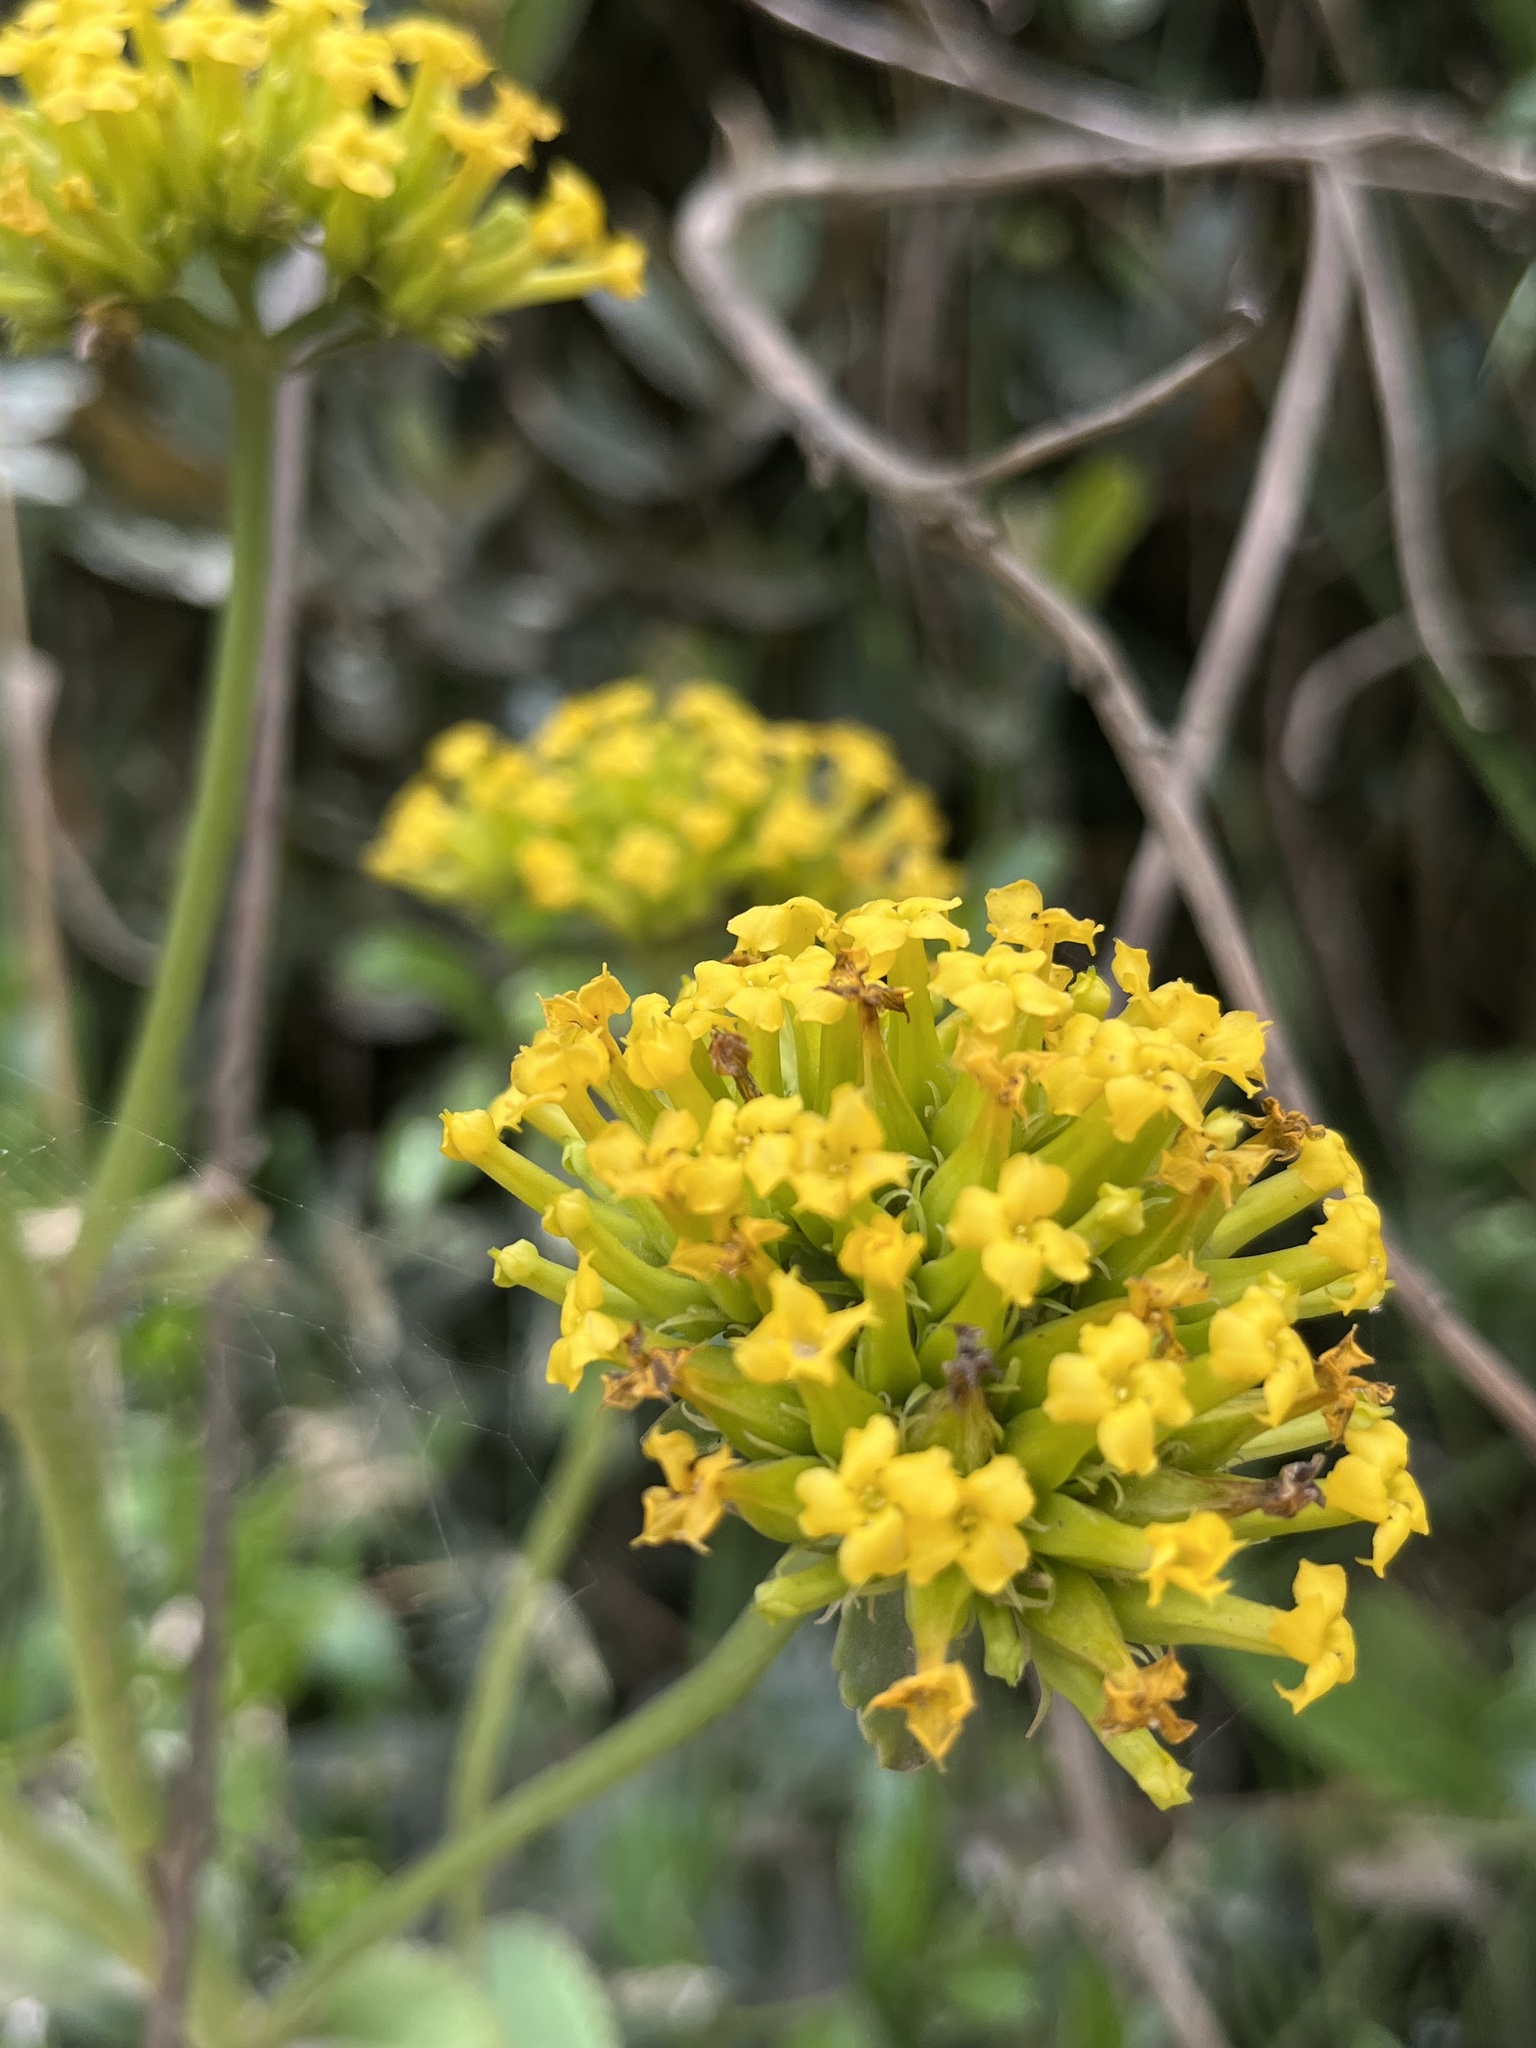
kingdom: Plantae
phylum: Tracheophyta
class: Magnoliopsida
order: Saxifragales
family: Crassulaceae
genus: Kalanchoe
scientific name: Kalanchoe densiflora
